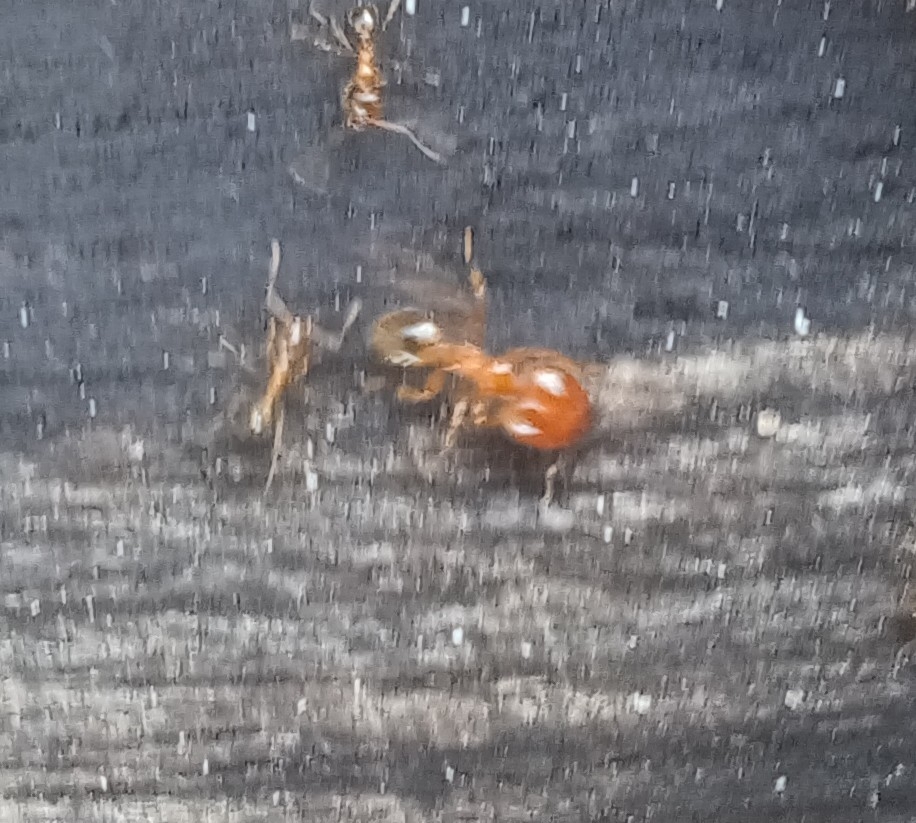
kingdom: Animalia
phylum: Arthropoda
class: Insecta
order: Hymenoptera
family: Formicidae
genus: Pheidole
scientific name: Pheidole capensis
